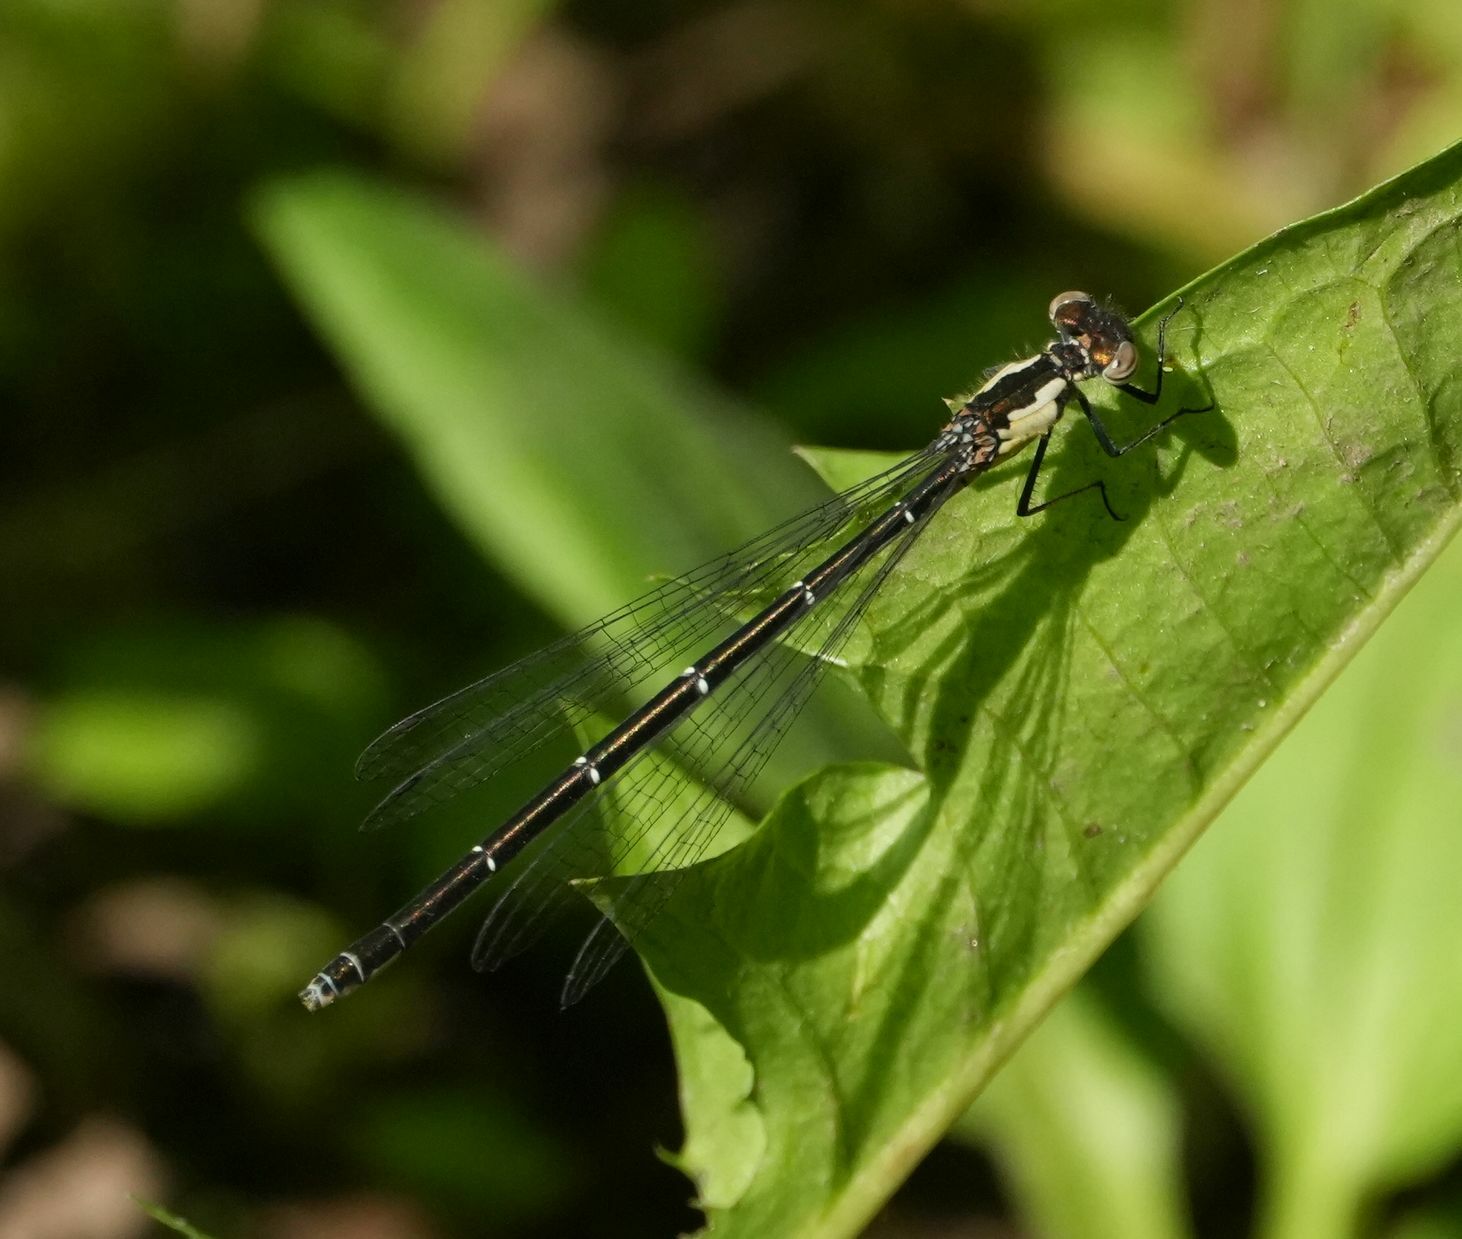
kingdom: Animalia
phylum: Arthropoda
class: Insecta
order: Odonata
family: Coenagrionidae
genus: Chromagrion
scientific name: Chromagrion conditum
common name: Aurora damsel
